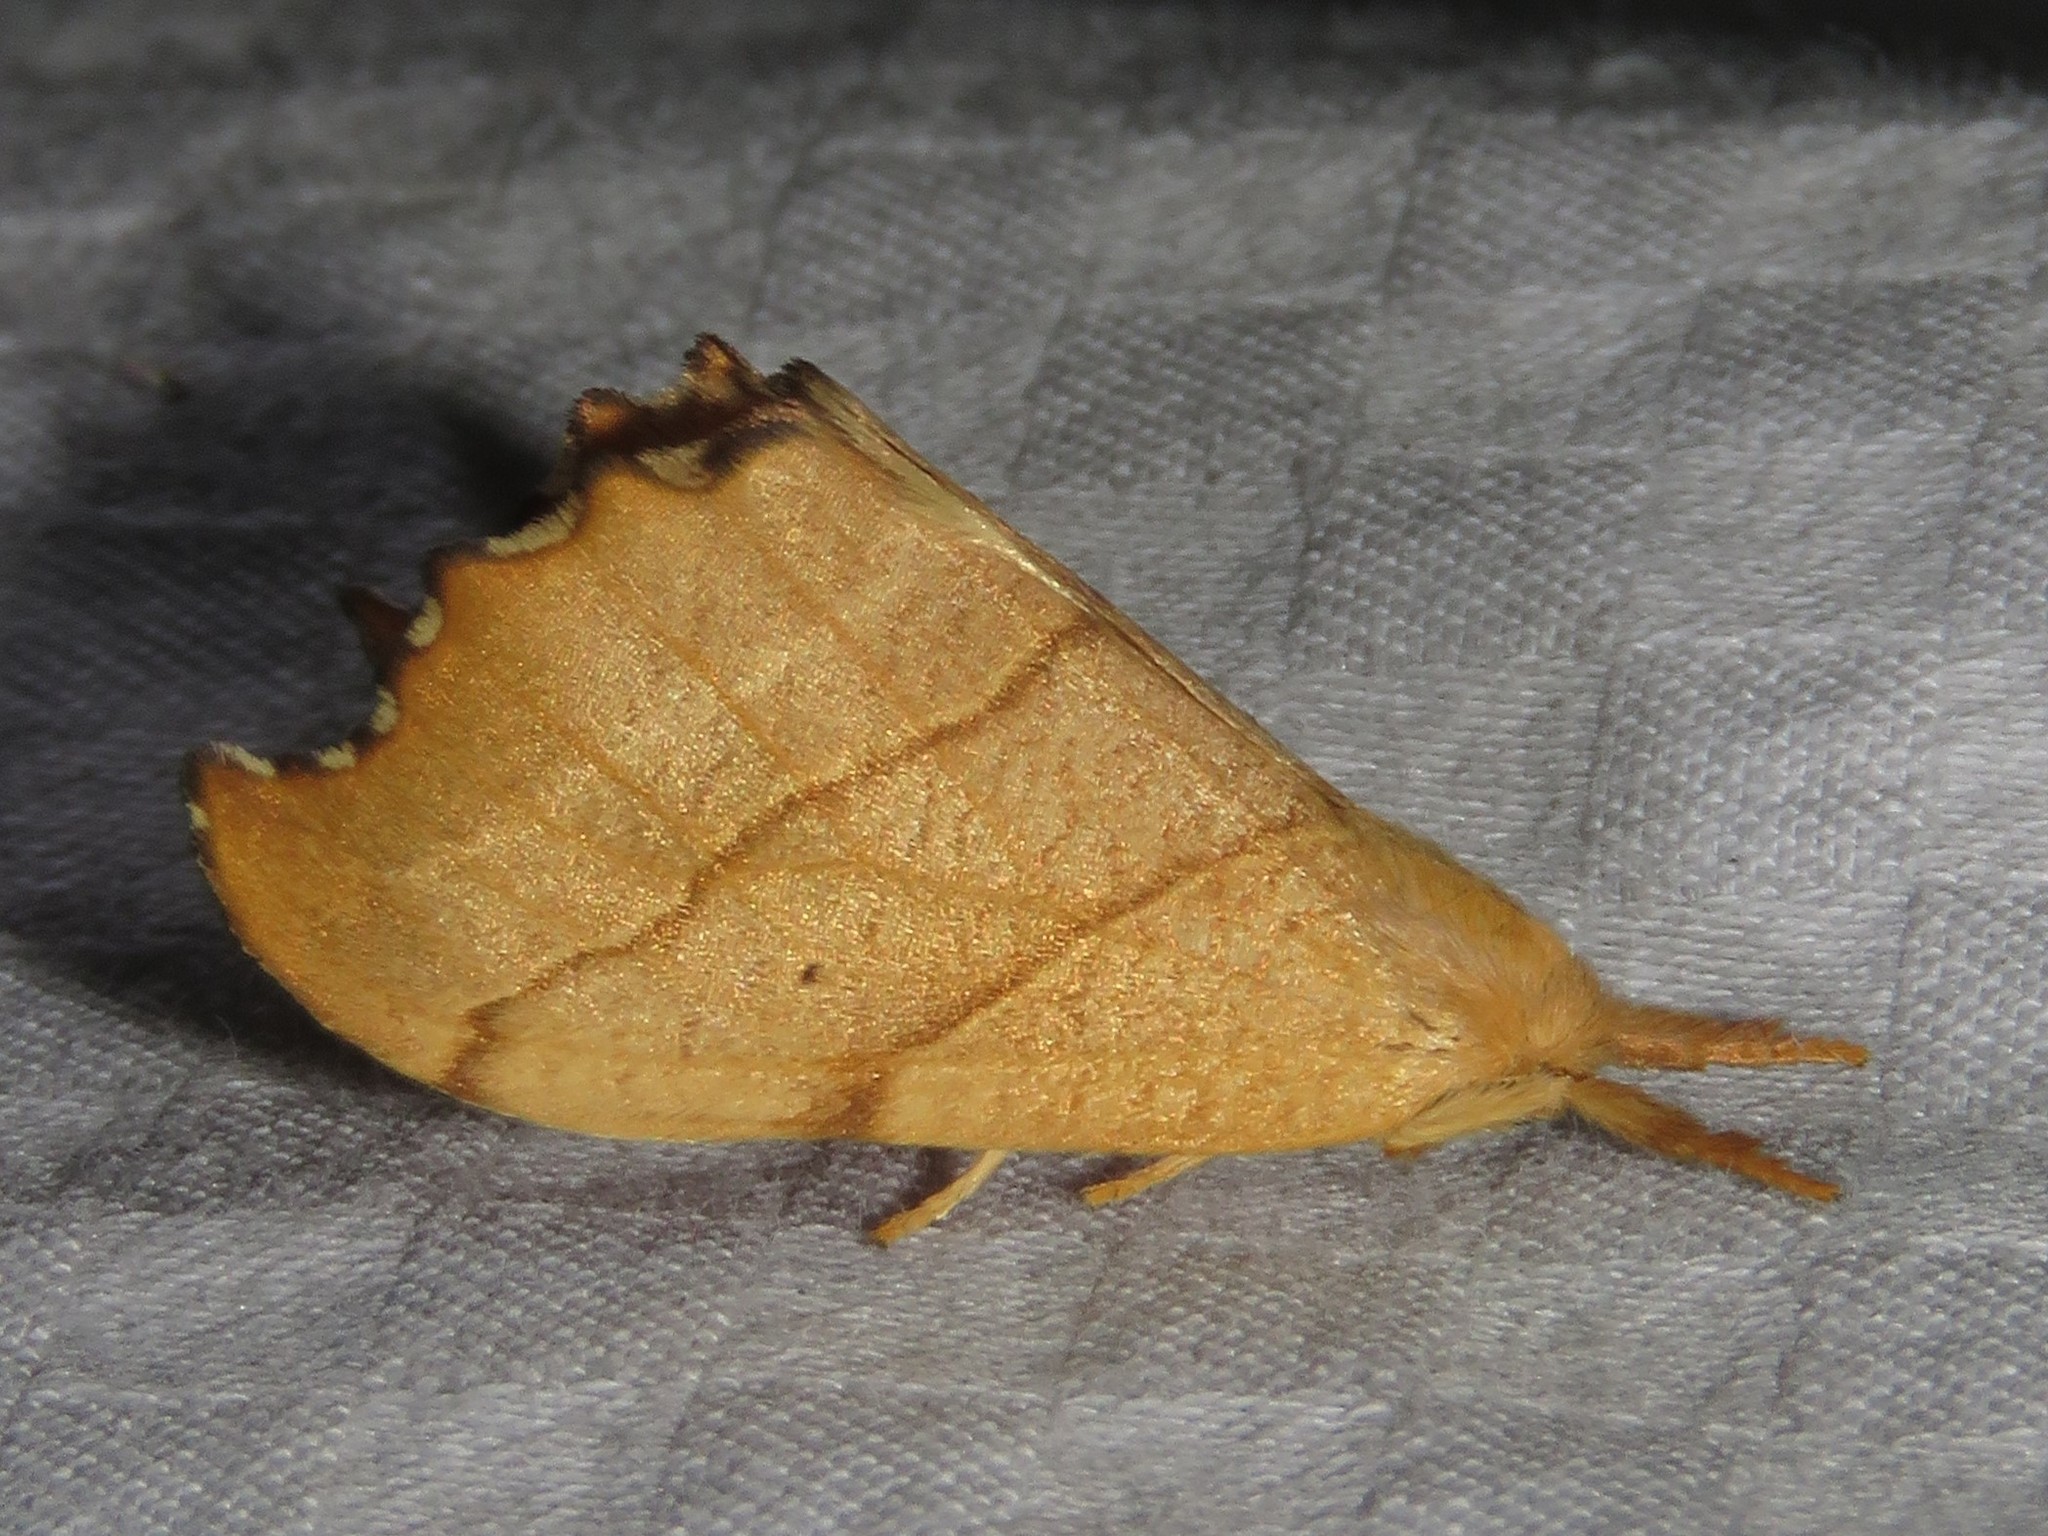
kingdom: Animalia
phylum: Arthropoda
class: Insecta
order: Lepidoptera
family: Drepanidae
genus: Falcaria
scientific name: Falcaria bilineata
